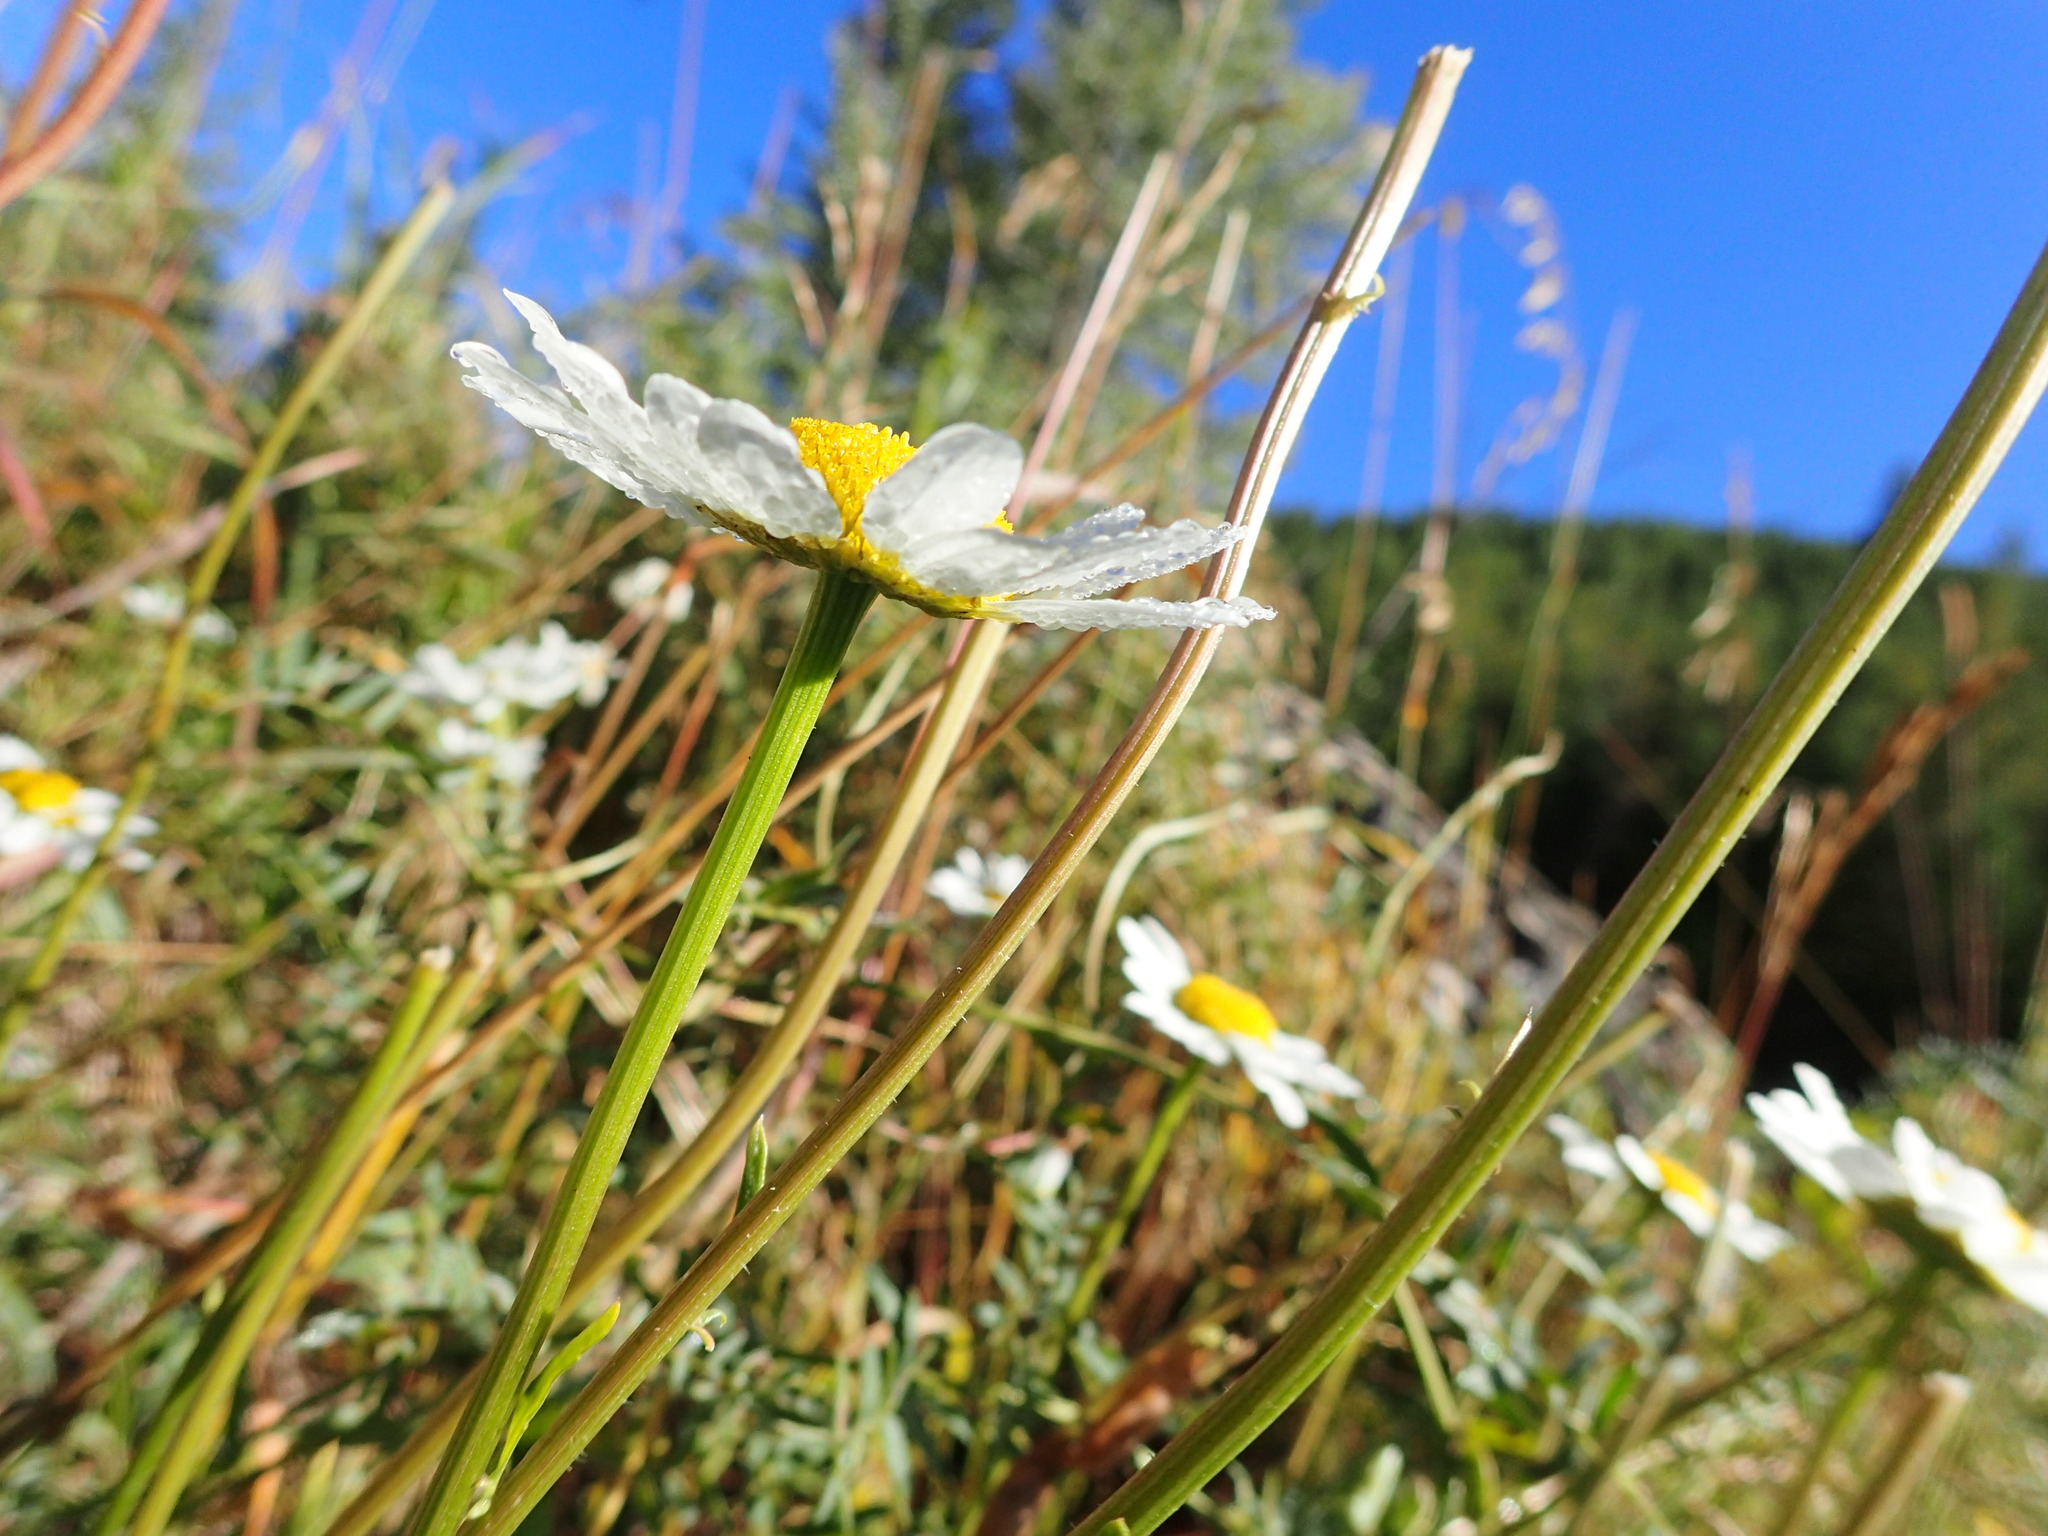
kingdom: Plantae
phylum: Tracheophyta
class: Magnoliopsida
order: Asterales
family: Asteraceae
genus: Leucanthemum
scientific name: Leucanthemum vulgare
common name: Oxeye daisy
